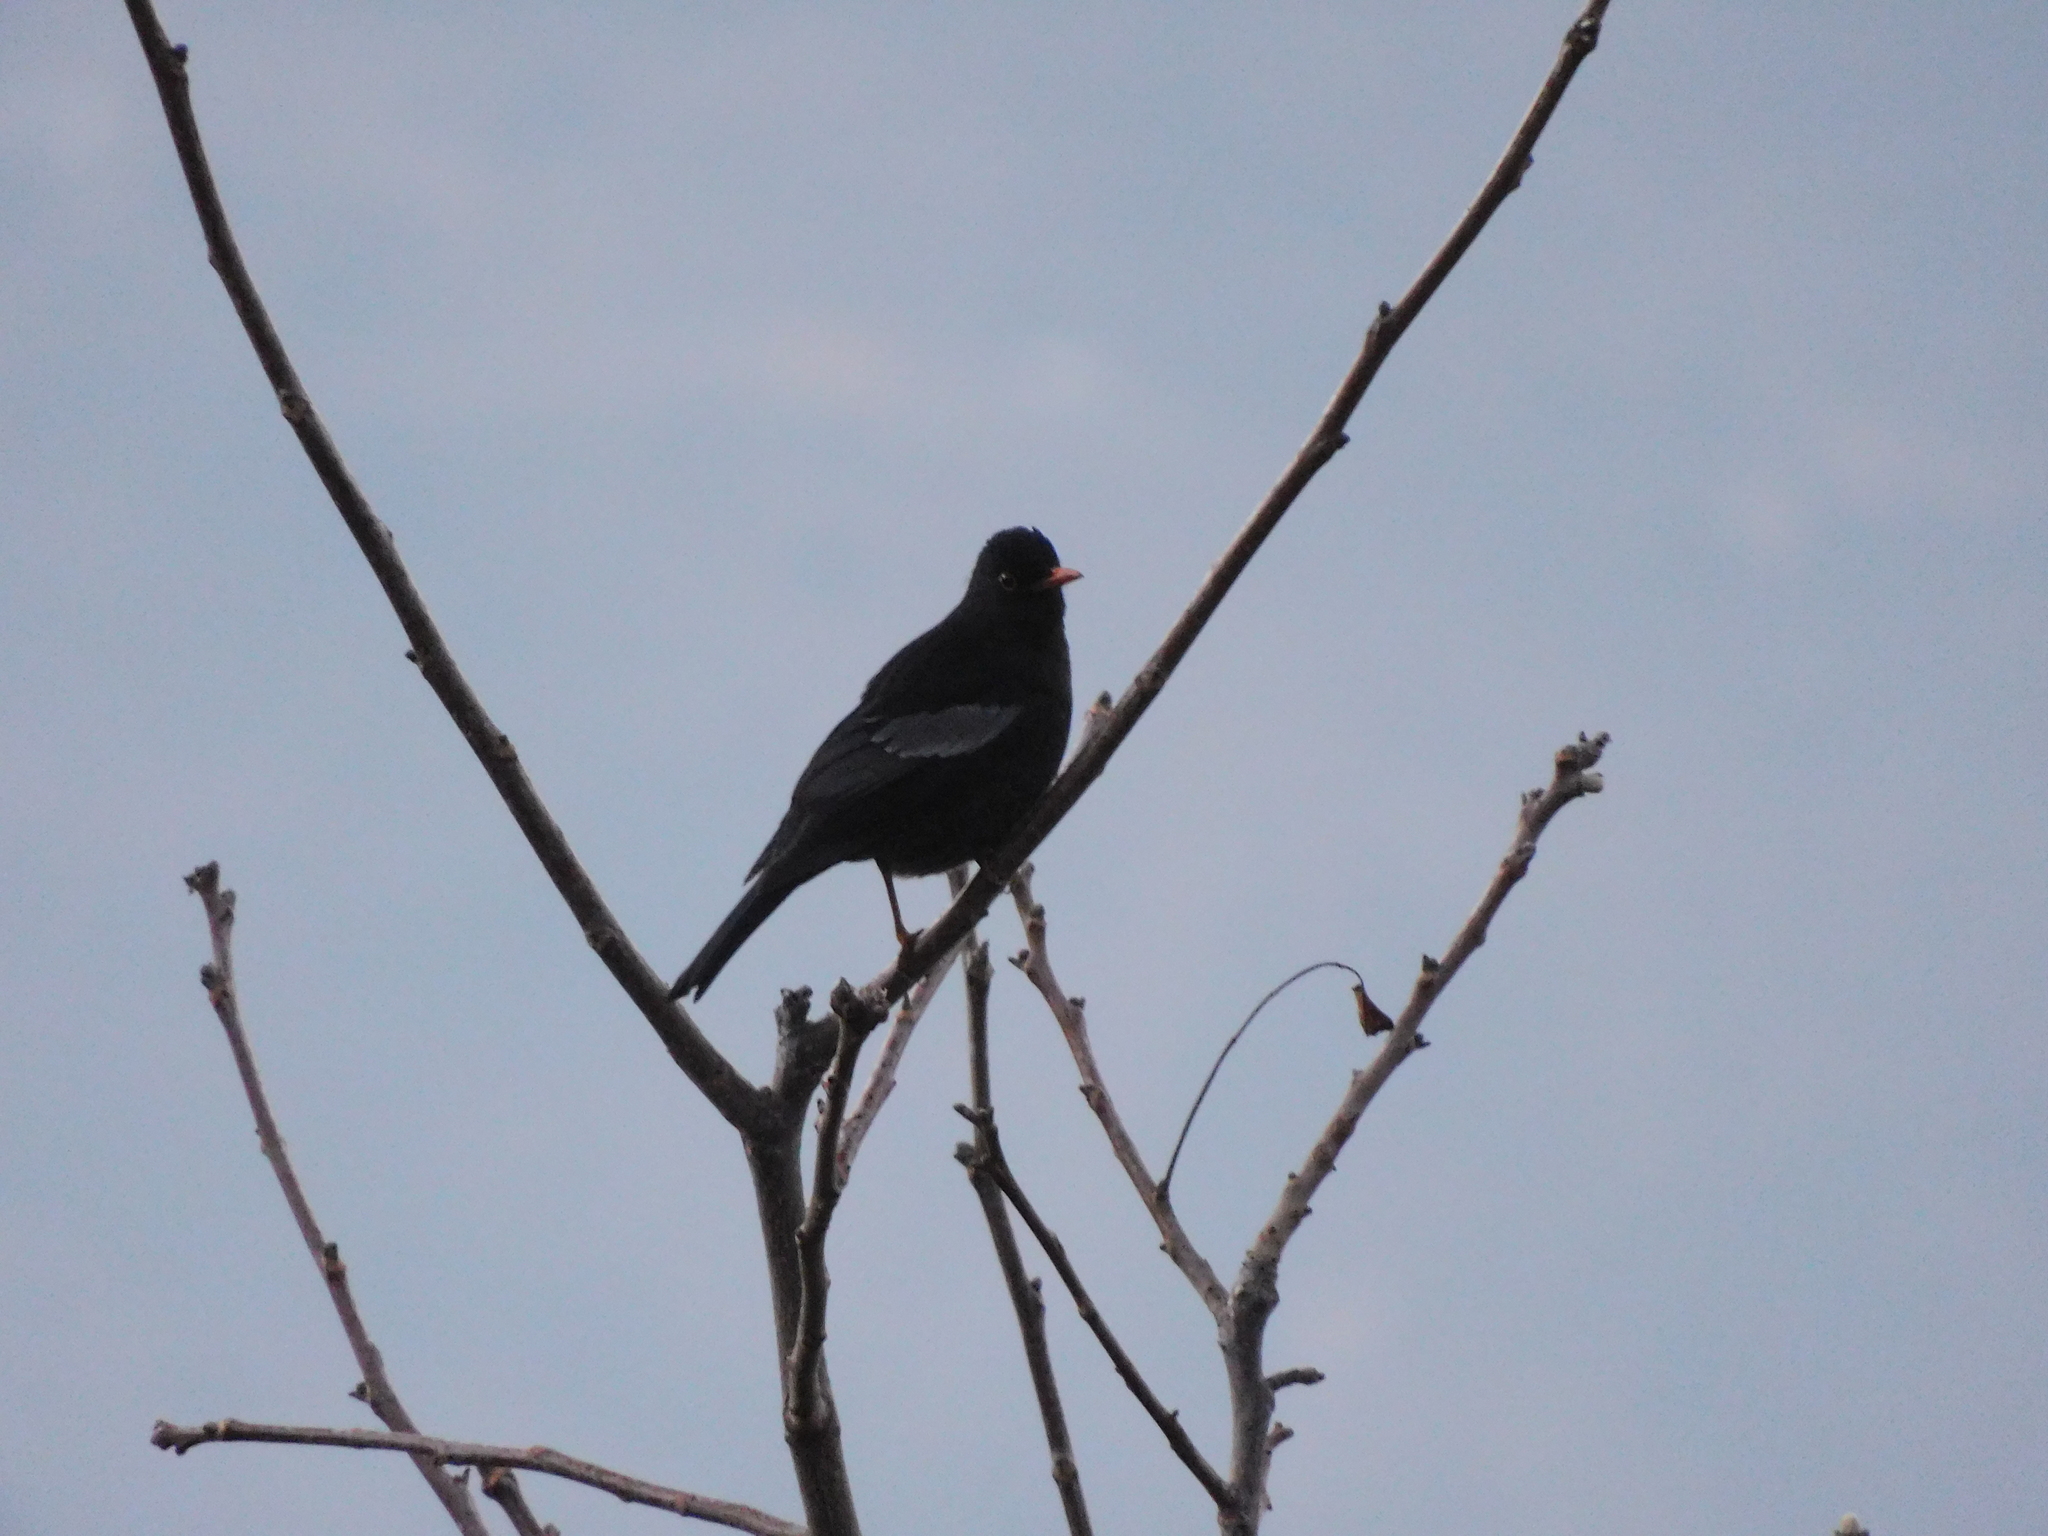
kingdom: Animalia
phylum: Chordata
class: Aves
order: Passeriformes
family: Turdidae
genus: Turdus
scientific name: Turdus boulboul
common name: Grey-winged blackbird
